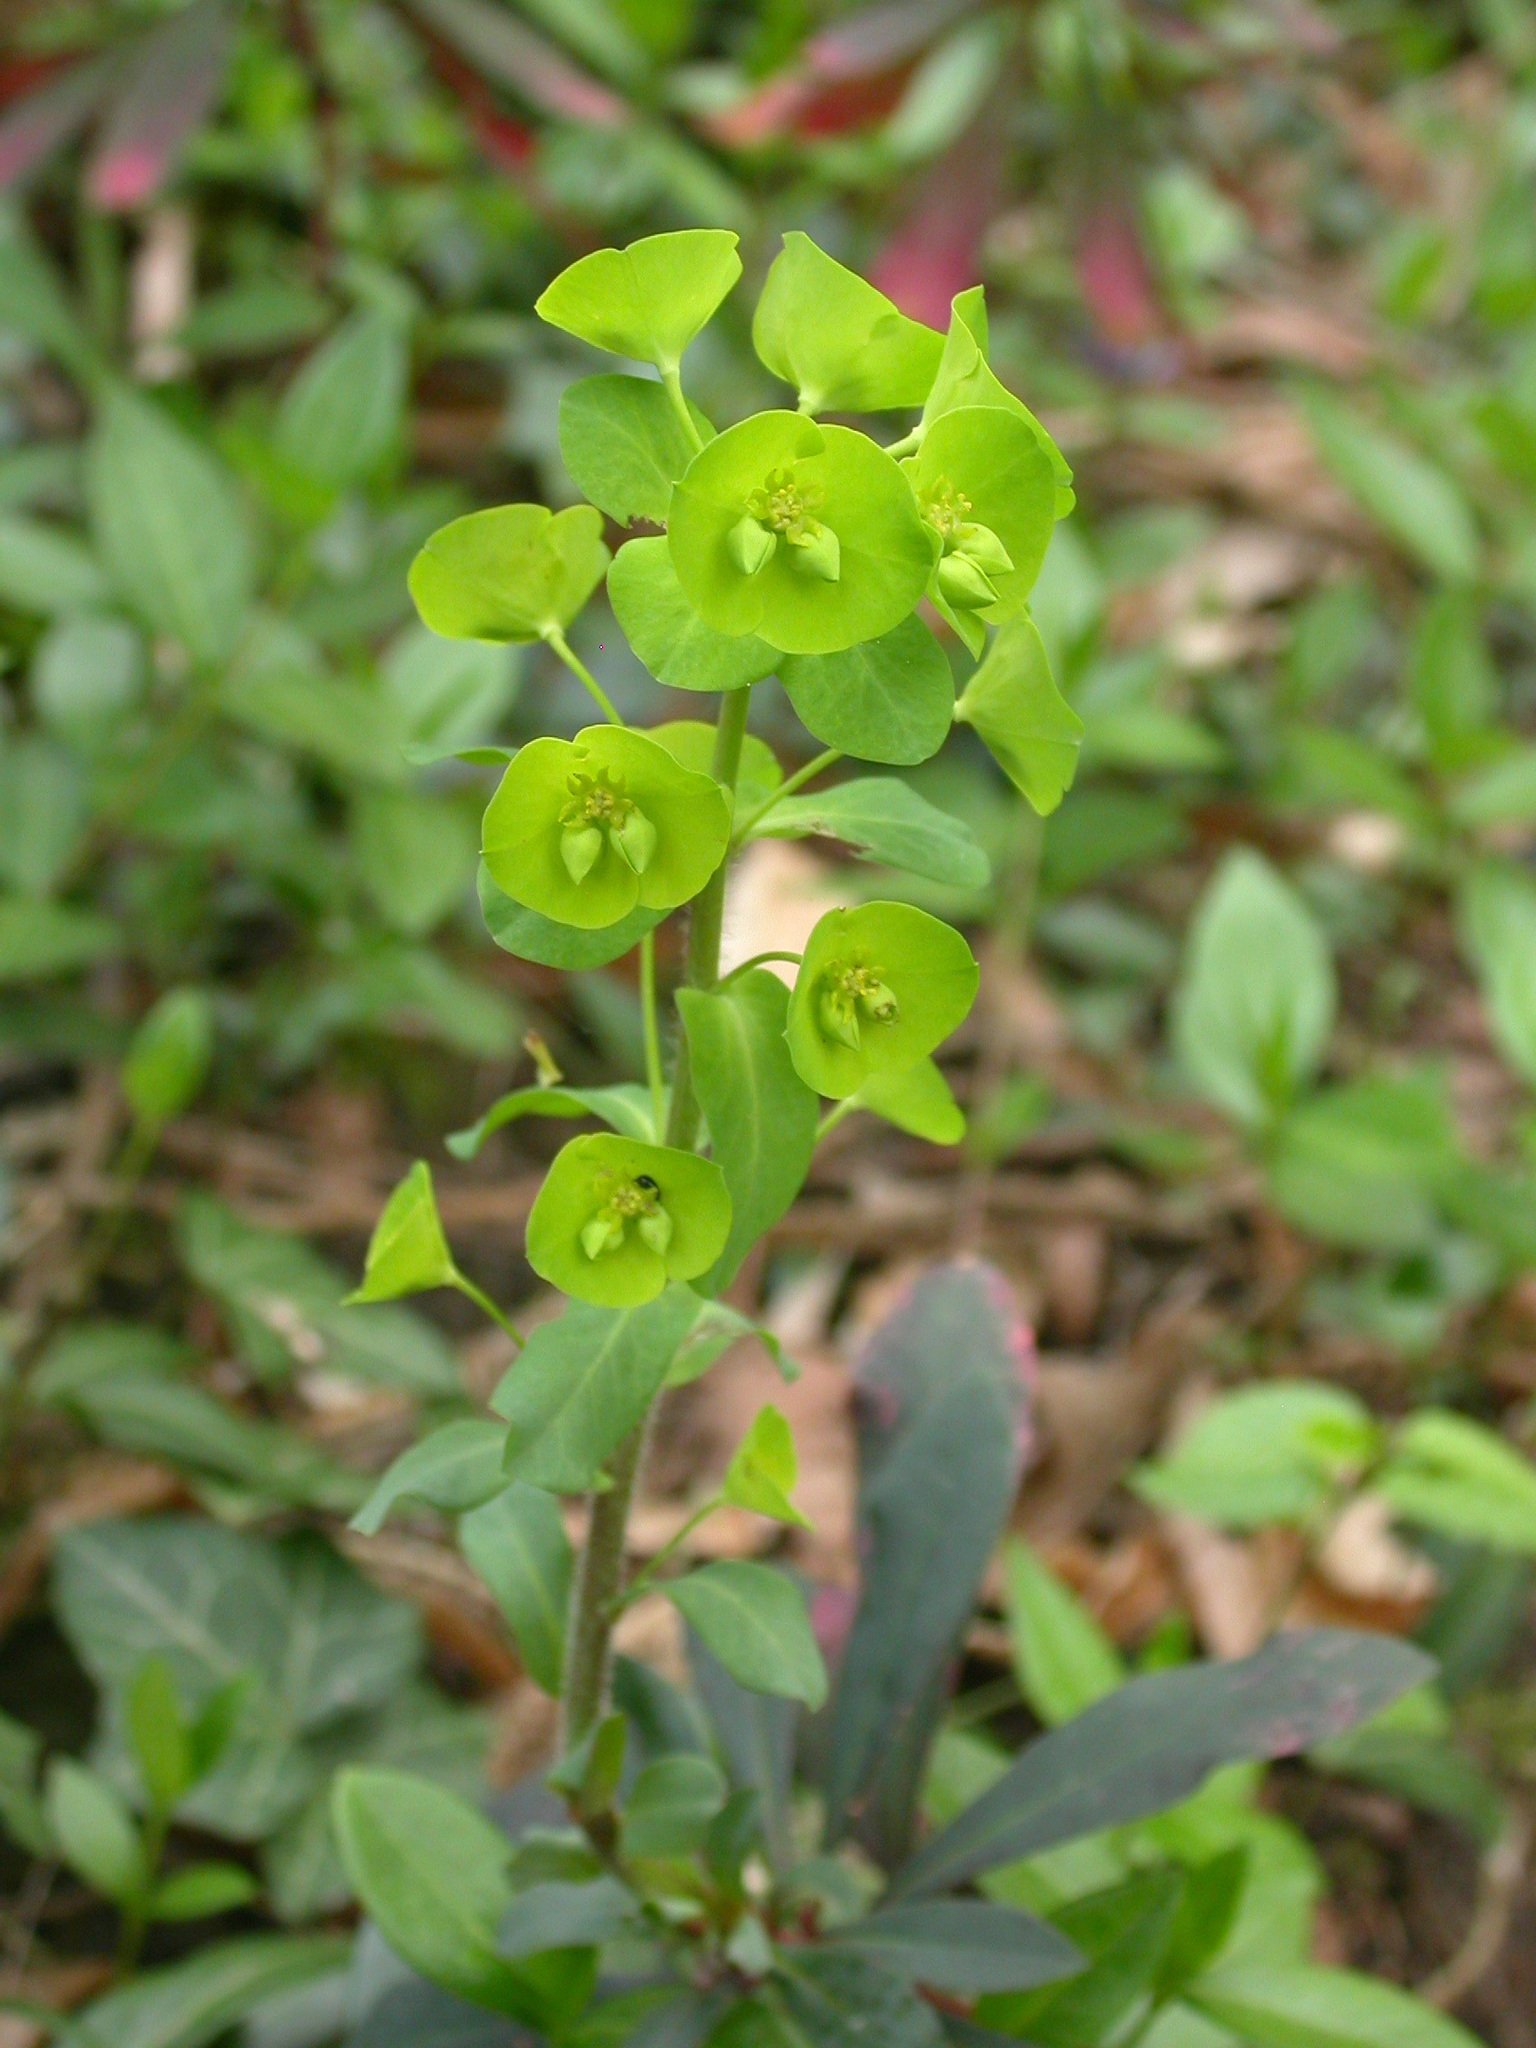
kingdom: Plantae
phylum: Tracheophyta
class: Magnoliopsida
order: Malpighiales
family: Euphorbiaceae
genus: Euphorbia
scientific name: Euphorbia amygdaloides
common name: Wood spurge
